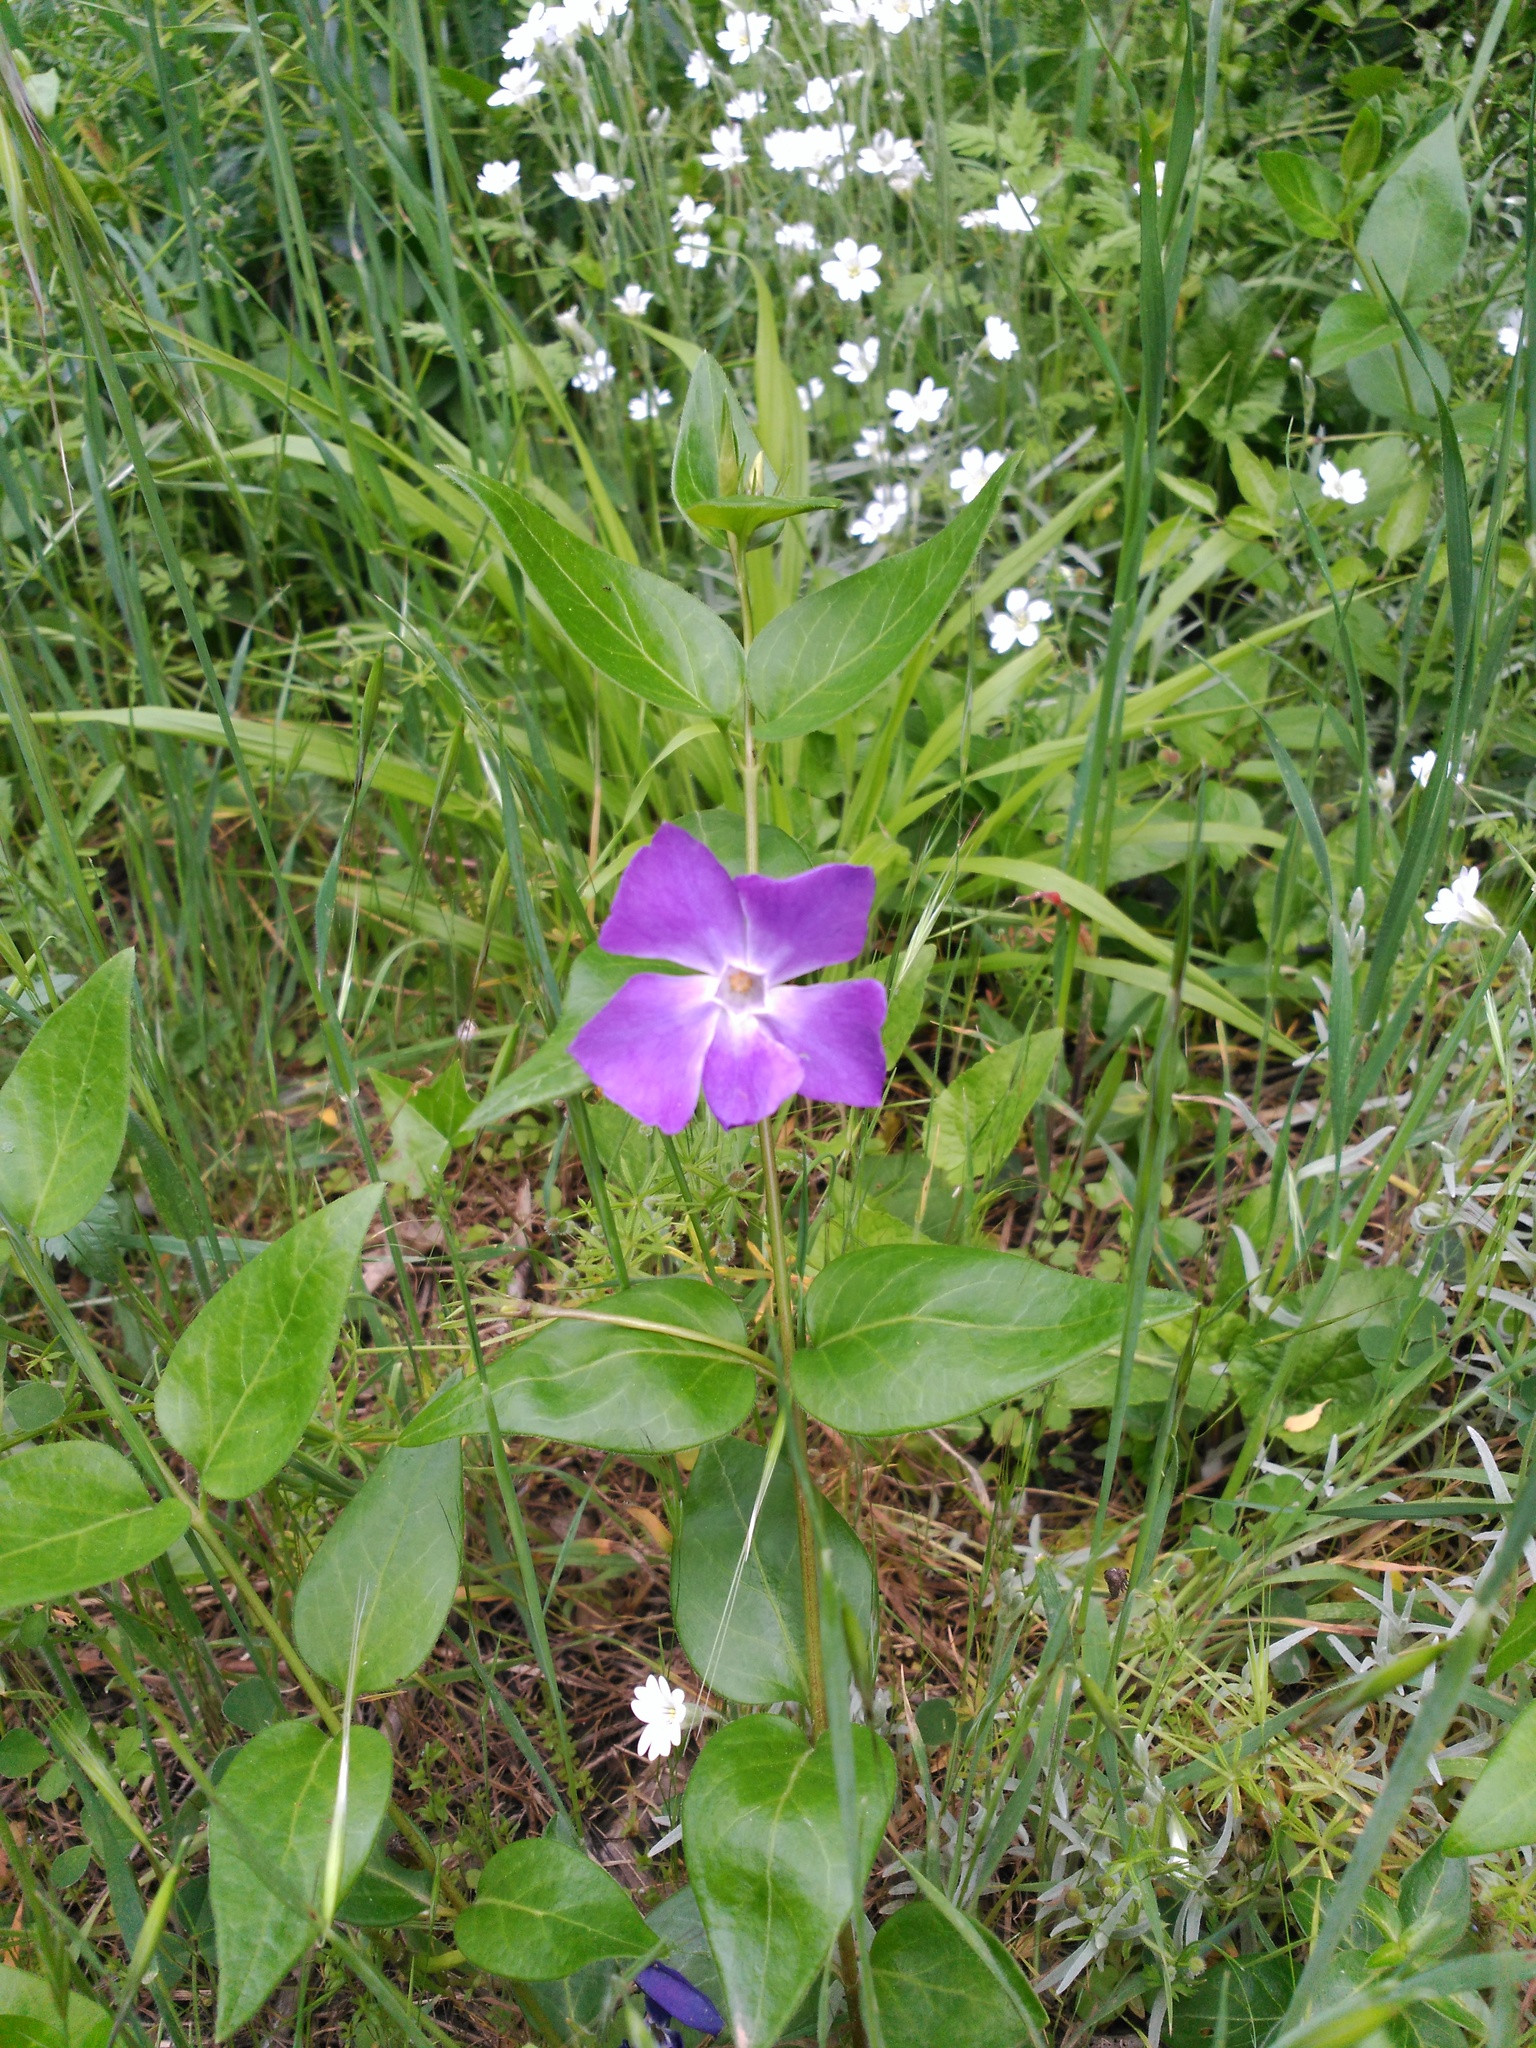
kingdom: Plantae
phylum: Tracheophyta
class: Magnoliopsida
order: Gentianales
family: Apocynaceae
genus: Vinca
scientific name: Vinca major
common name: Greater periwinkle
